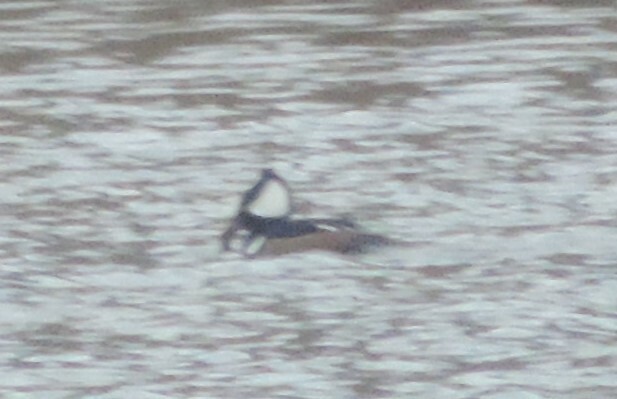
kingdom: Animalia
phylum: Chordata
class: Aves
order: Anseriformes
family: Anatidae
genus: Lophodytes
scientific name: Lophodytes cucullatus
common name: Hooded merganser
